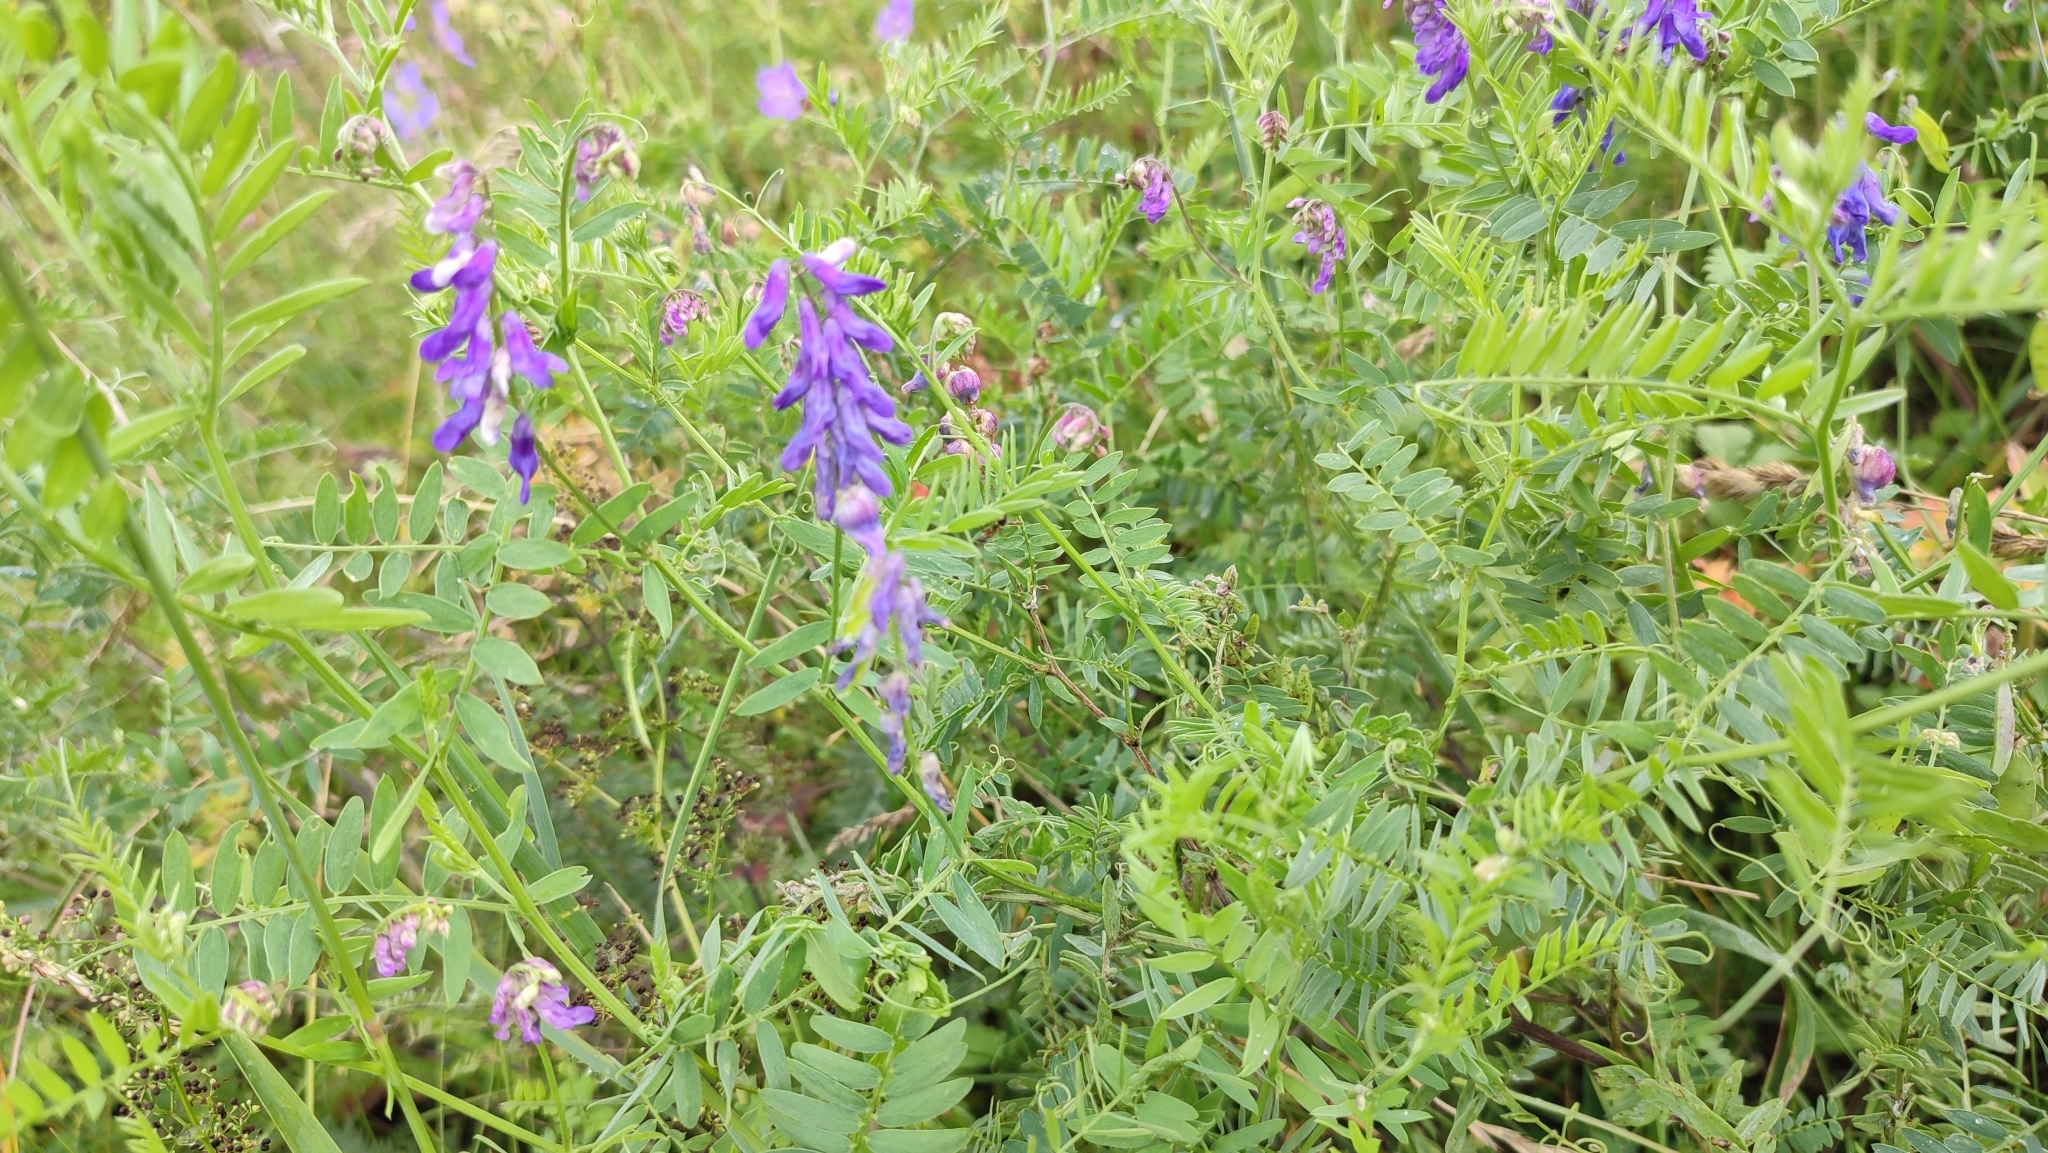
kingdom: Plantae
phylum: Tracheophyta
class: Magnoliopsida
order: Fabales
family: Fabaceae
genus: Vicia
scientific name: Vicia cracca
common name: Bird vetch
